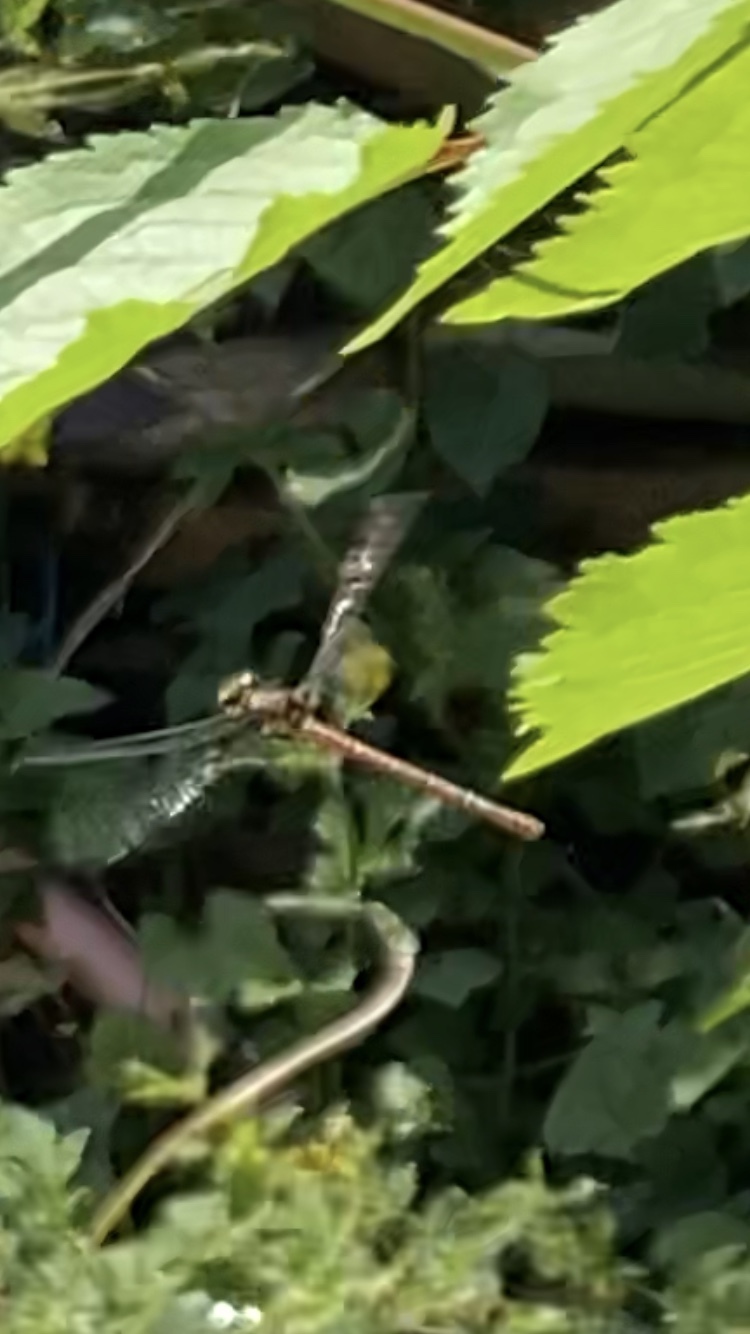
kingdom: Animalia
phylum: Arthropoda
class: Insecta
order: Odonata
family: Coenagrionidae
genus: Pyrrhosoma
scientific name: Pyrrhosoma nymphula
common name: Large red damsel
